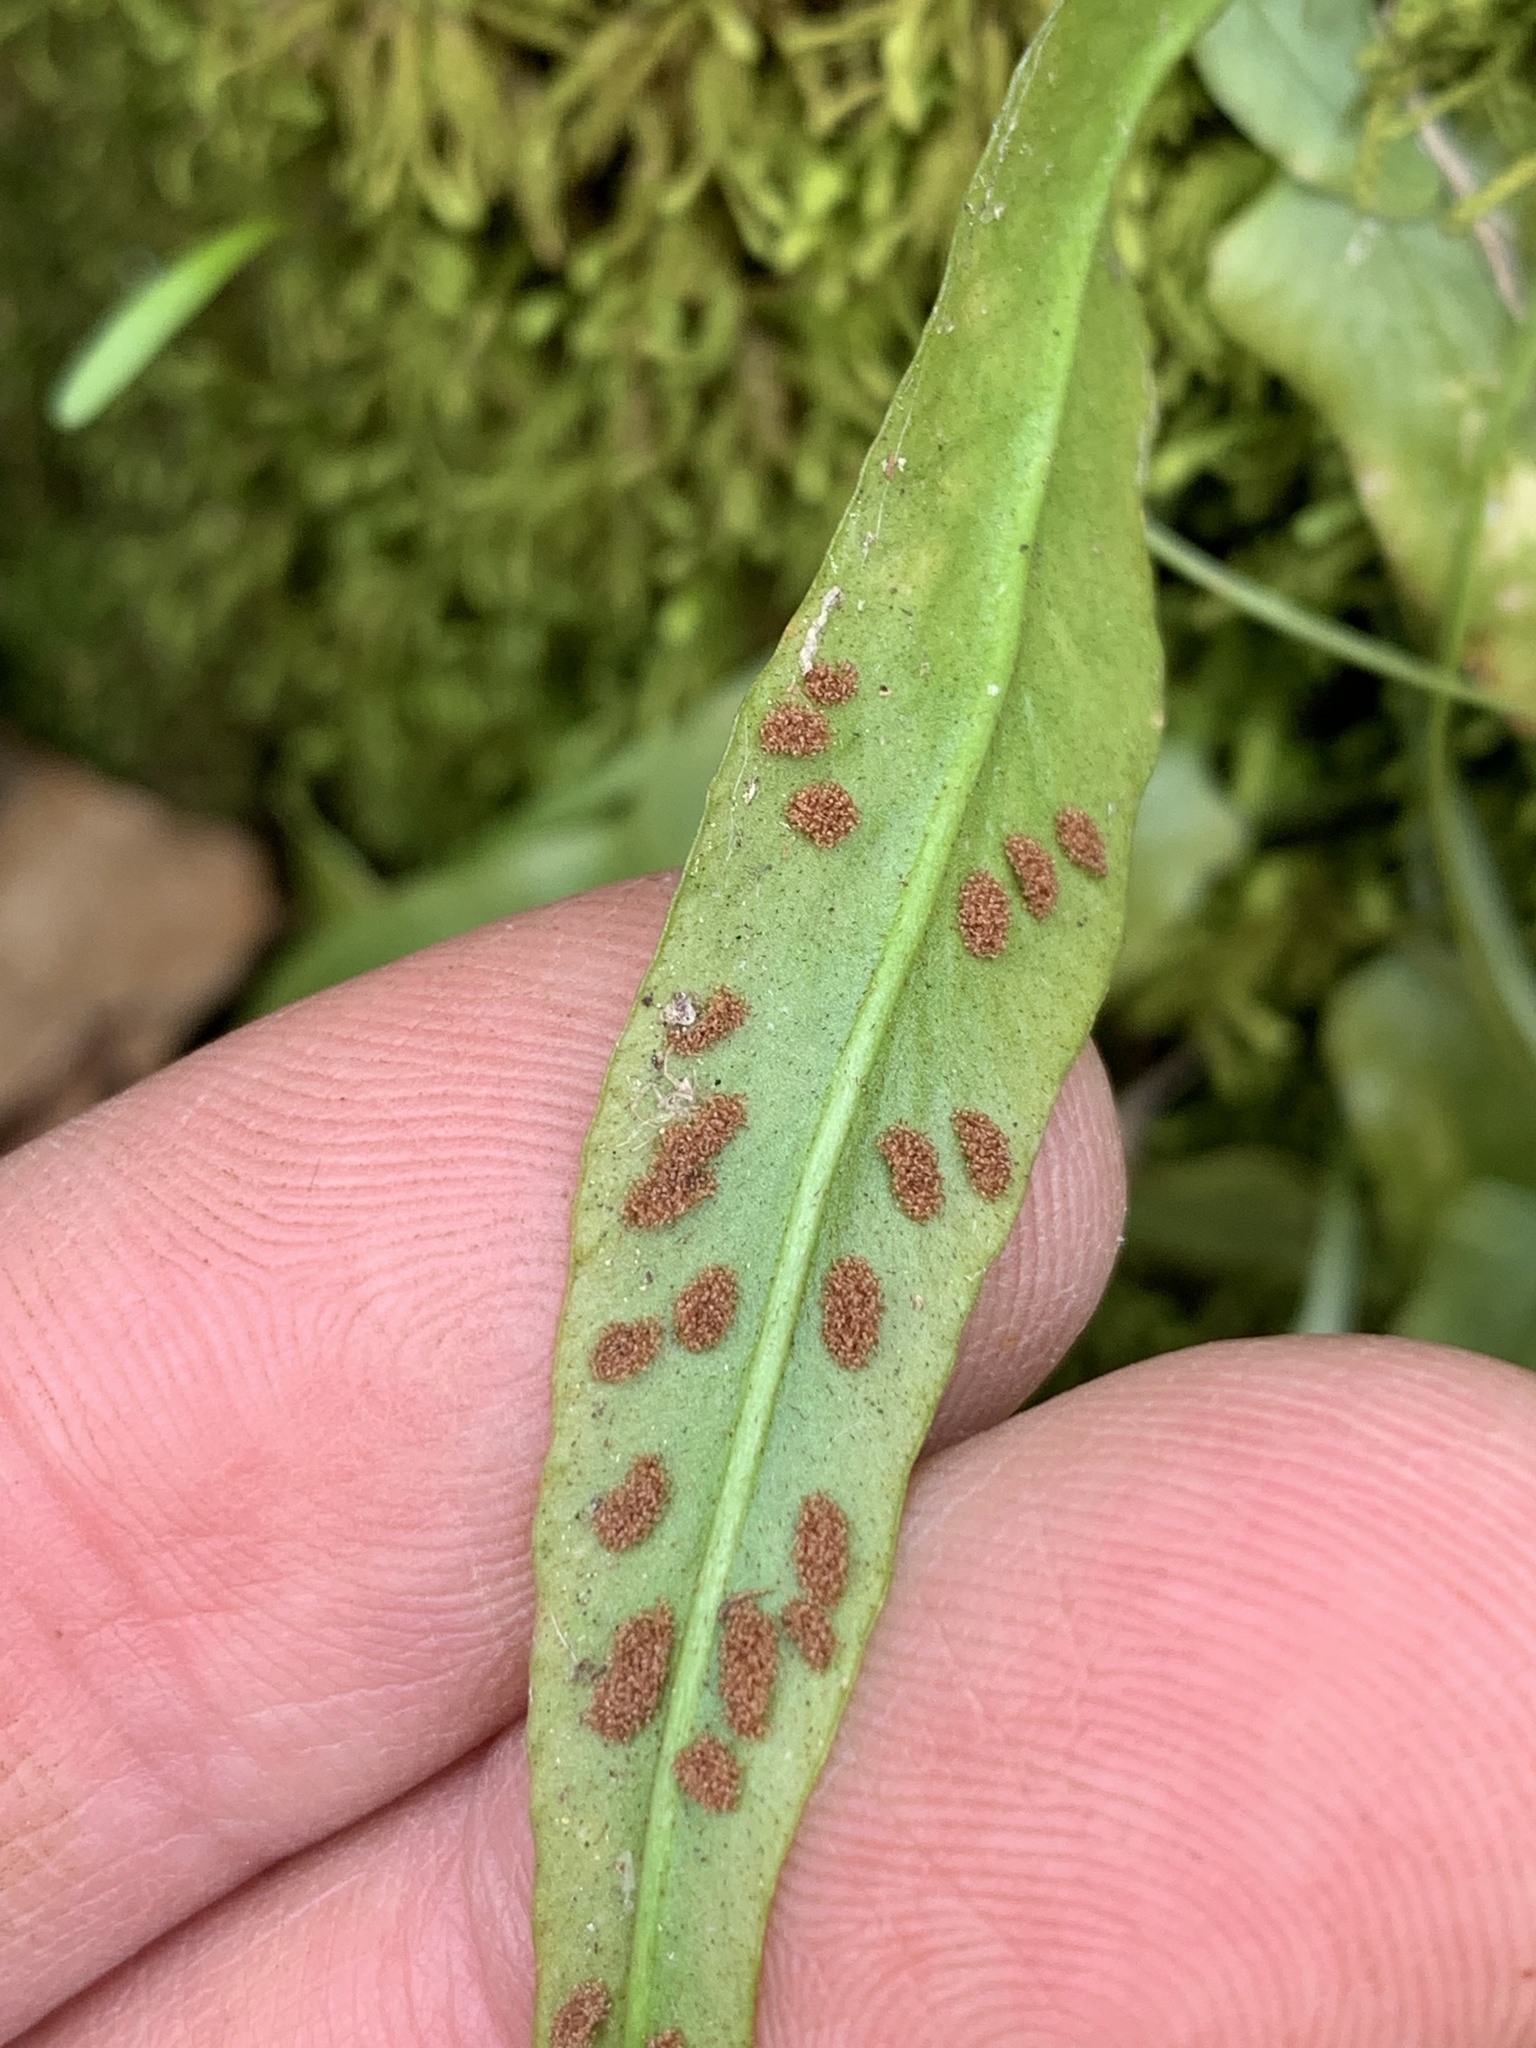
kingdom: Plantae
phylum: Tracheophyta
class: Polypodiopsida
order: Polypodiales
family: Aspleniaceae
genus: Asplenium
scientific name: Asplenium rhizophyllum
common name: Walking fern
